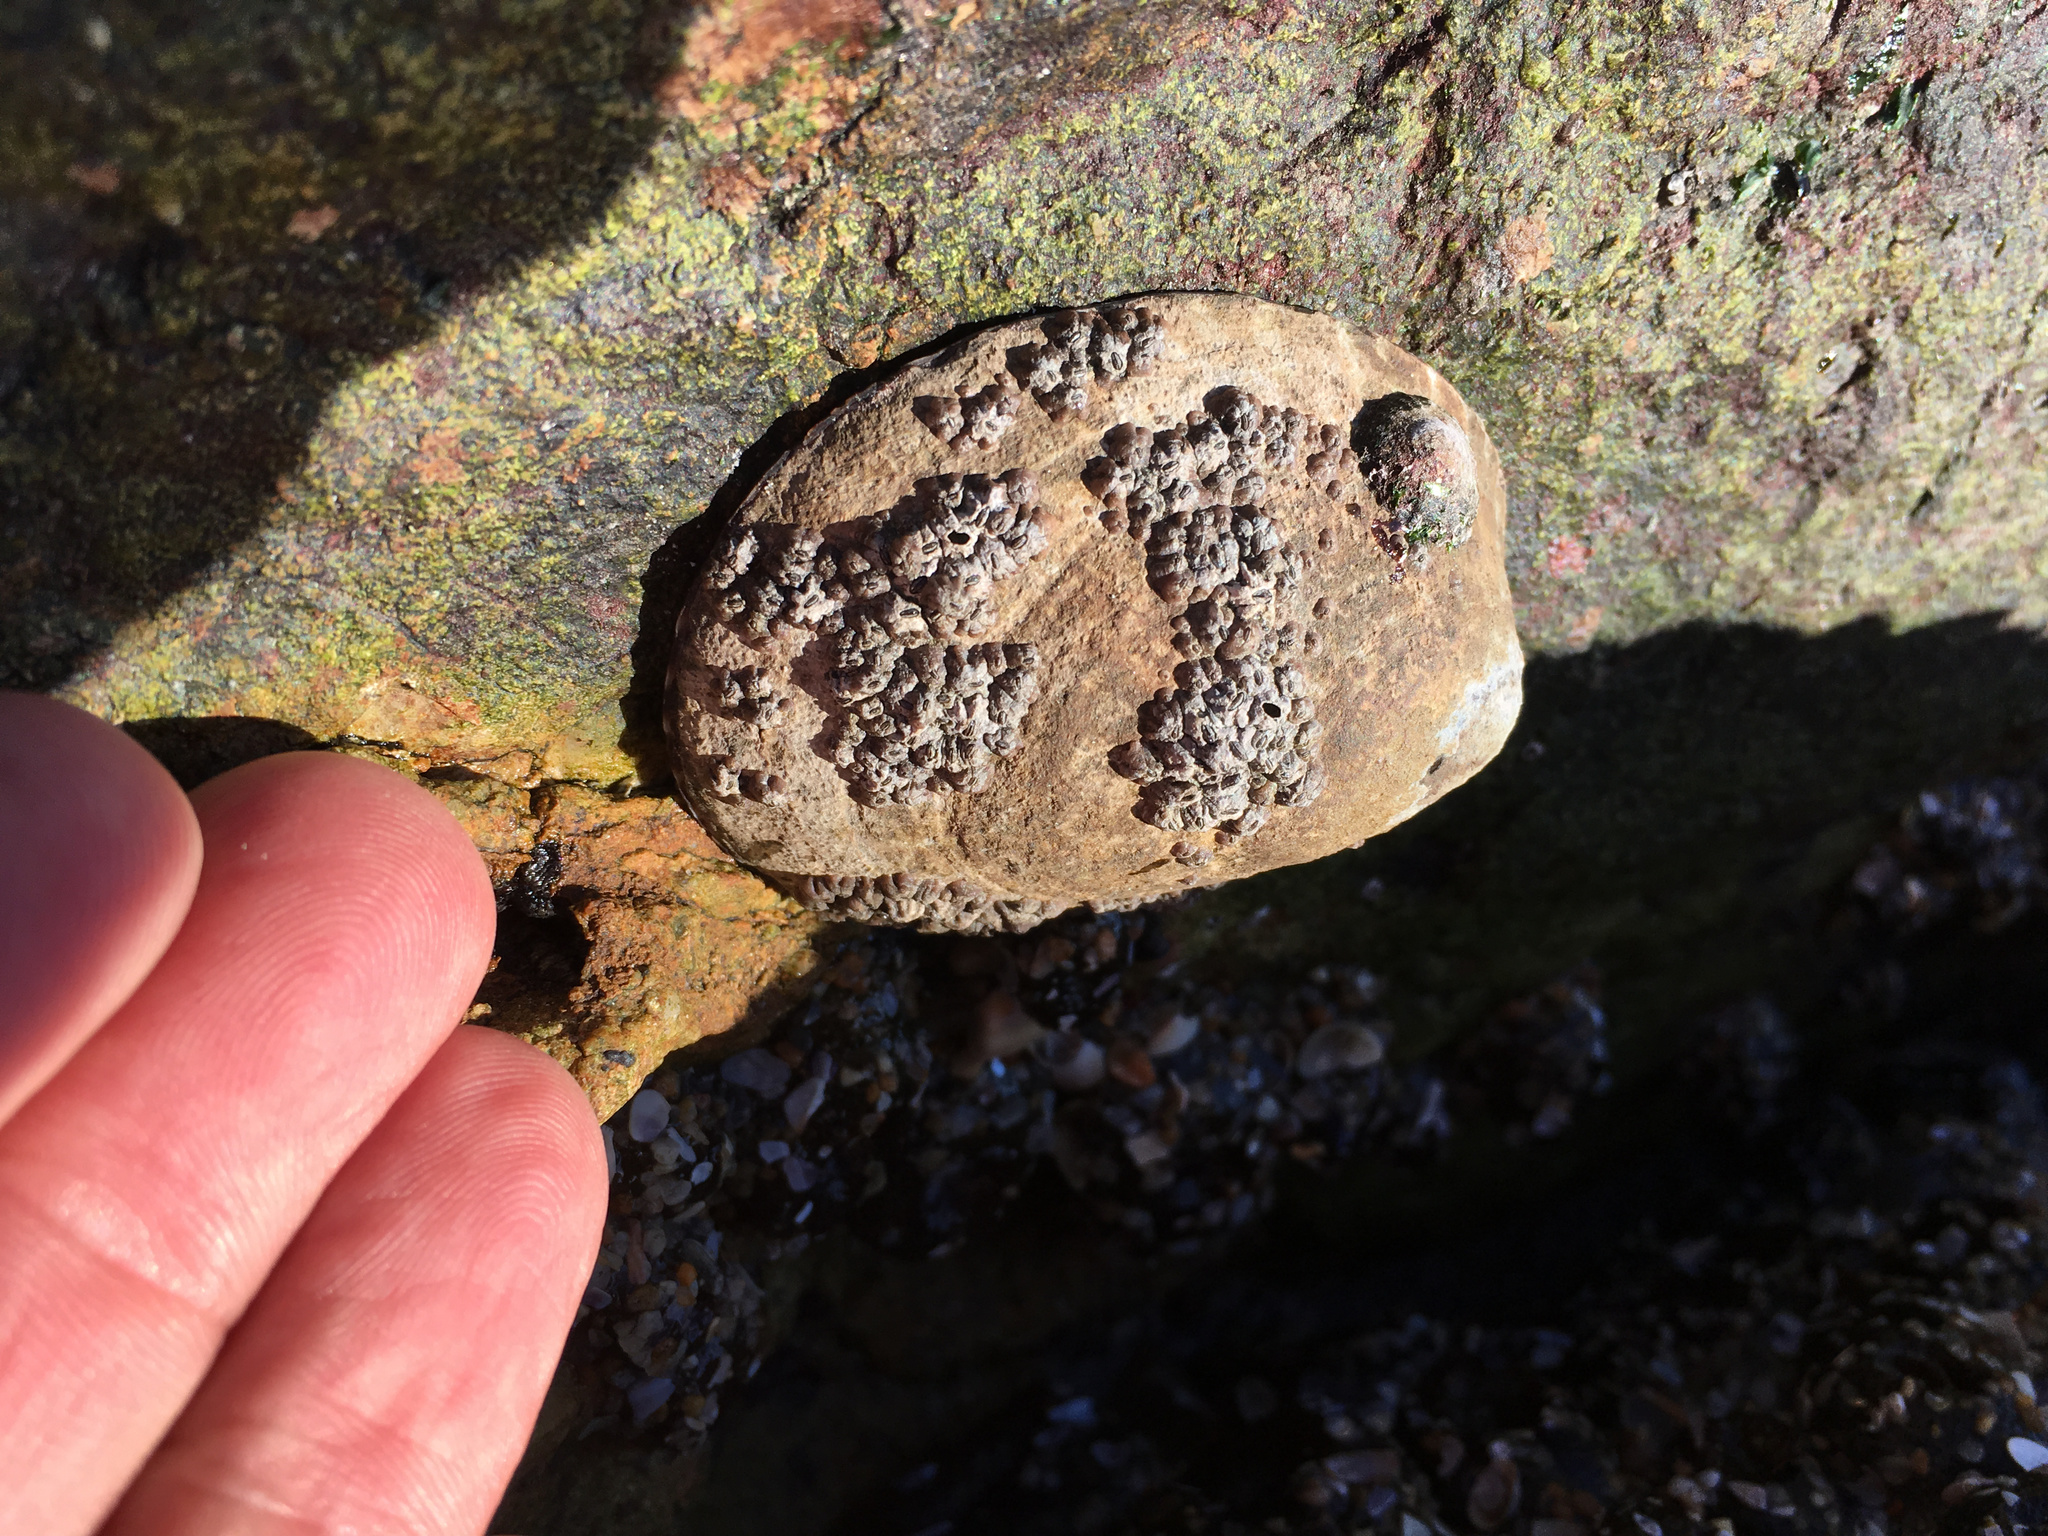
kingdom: Animalia
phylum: Mollusca
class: Gastropoda
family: Lottiidae
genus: Lottia
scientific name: Lottia gigantea
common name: Owl limpet
